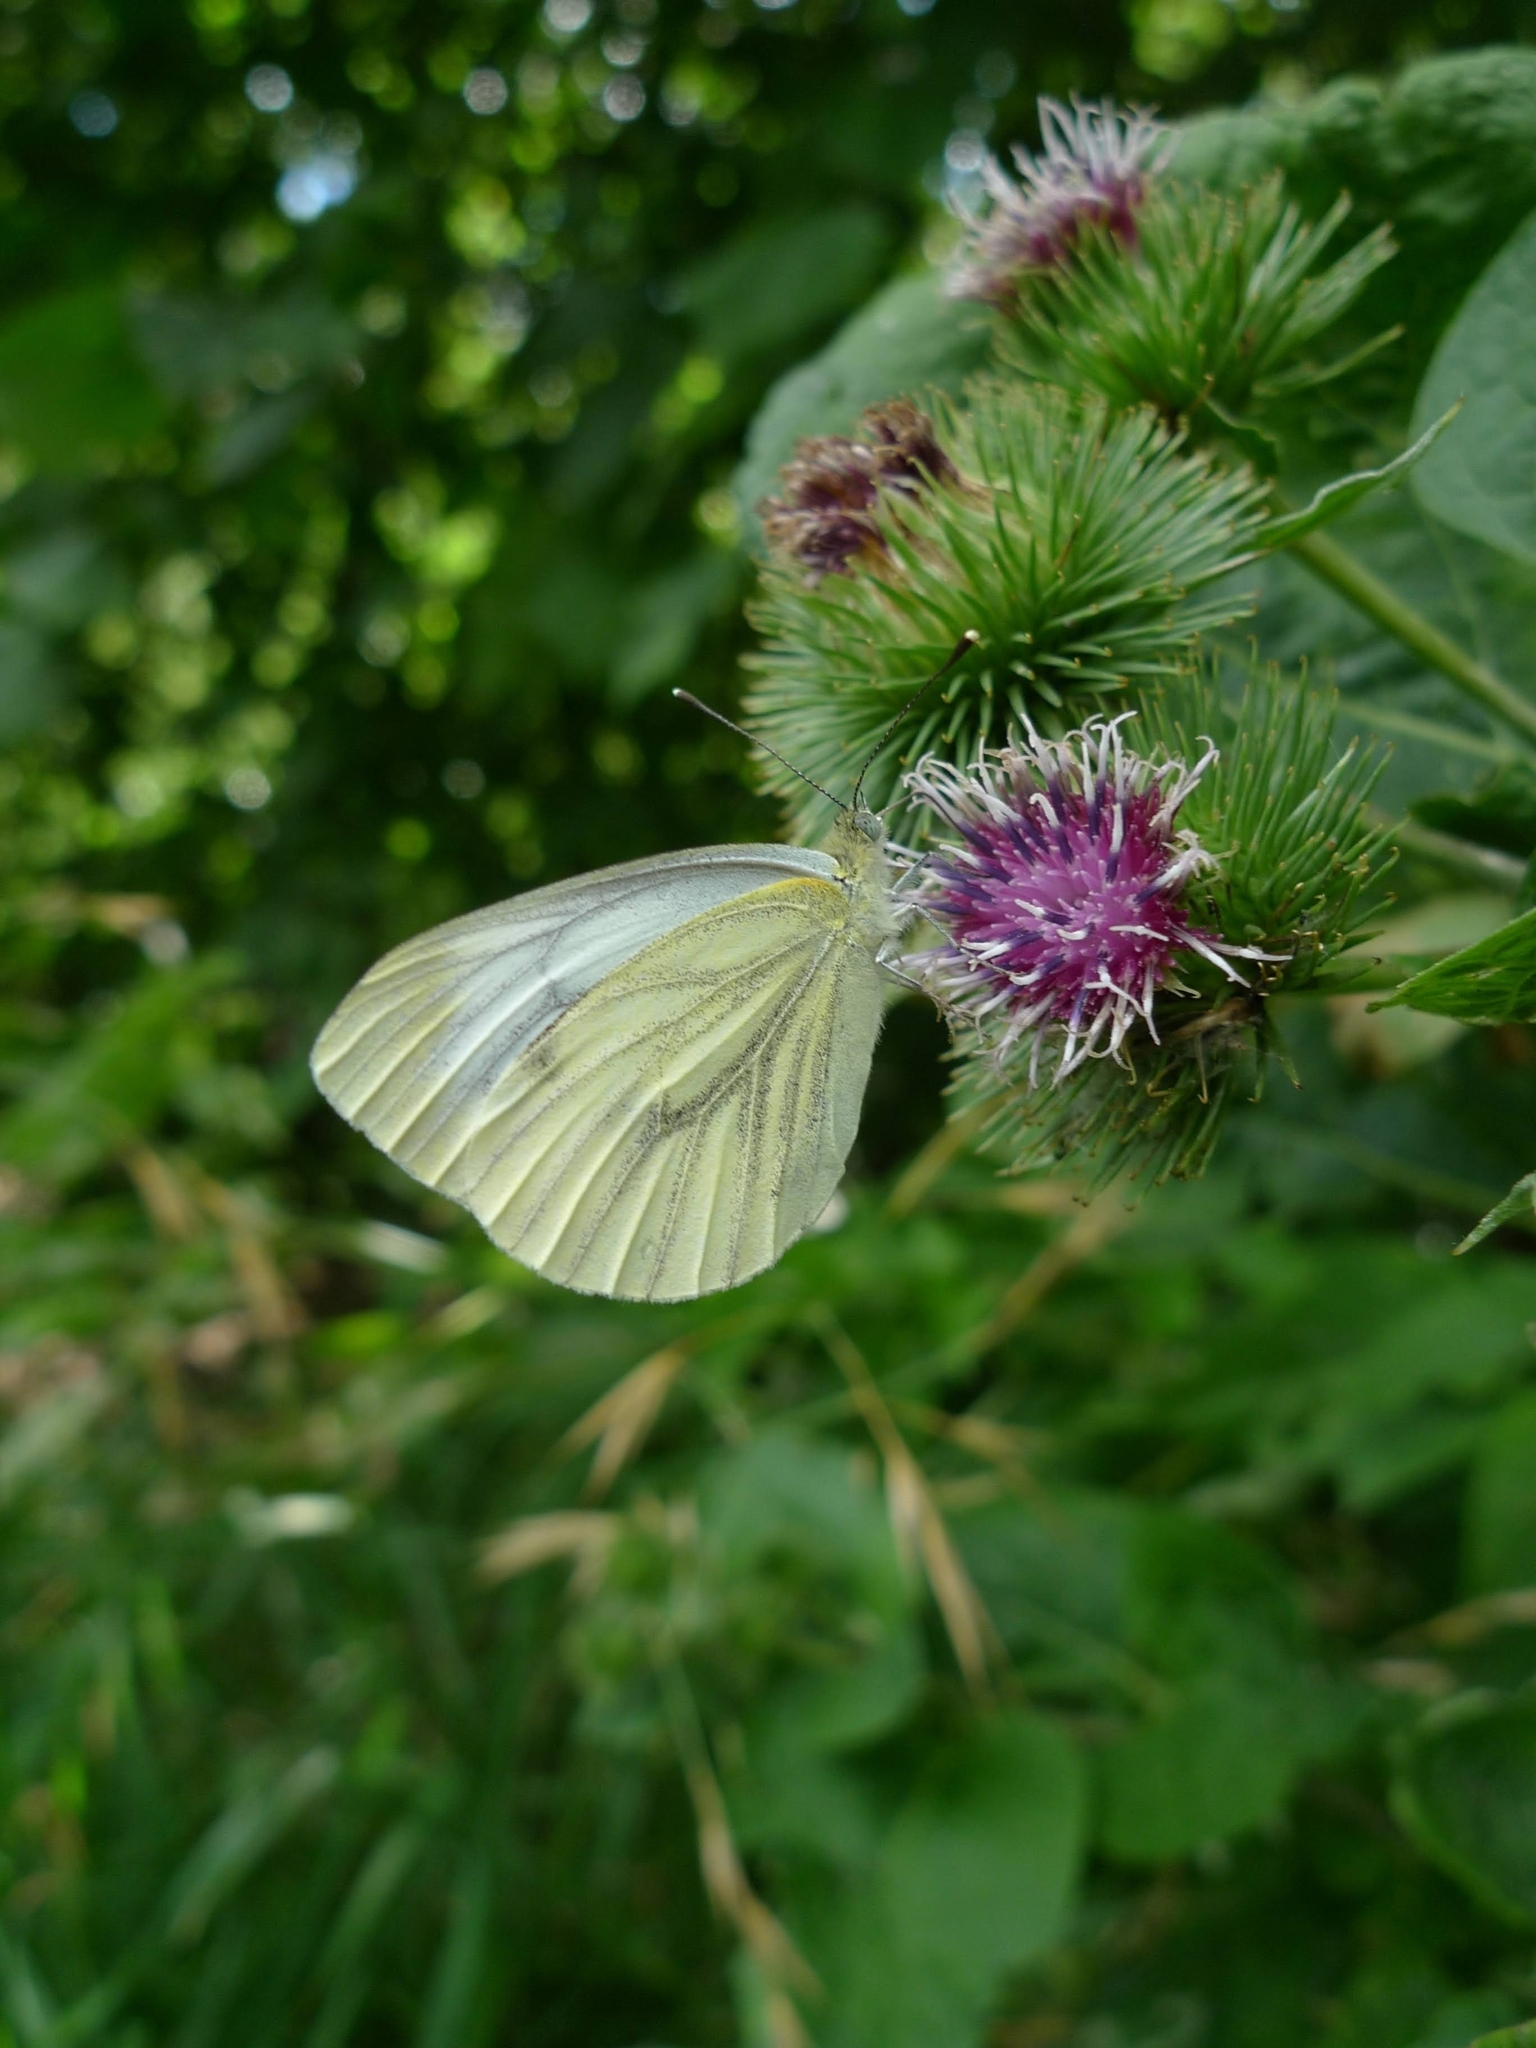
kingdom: Animalia
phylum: Arthropoda
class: Insecta
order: Lepidoptera
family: Pieridae
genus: Pieris
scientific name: Pieris napi
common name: Green-veined white
